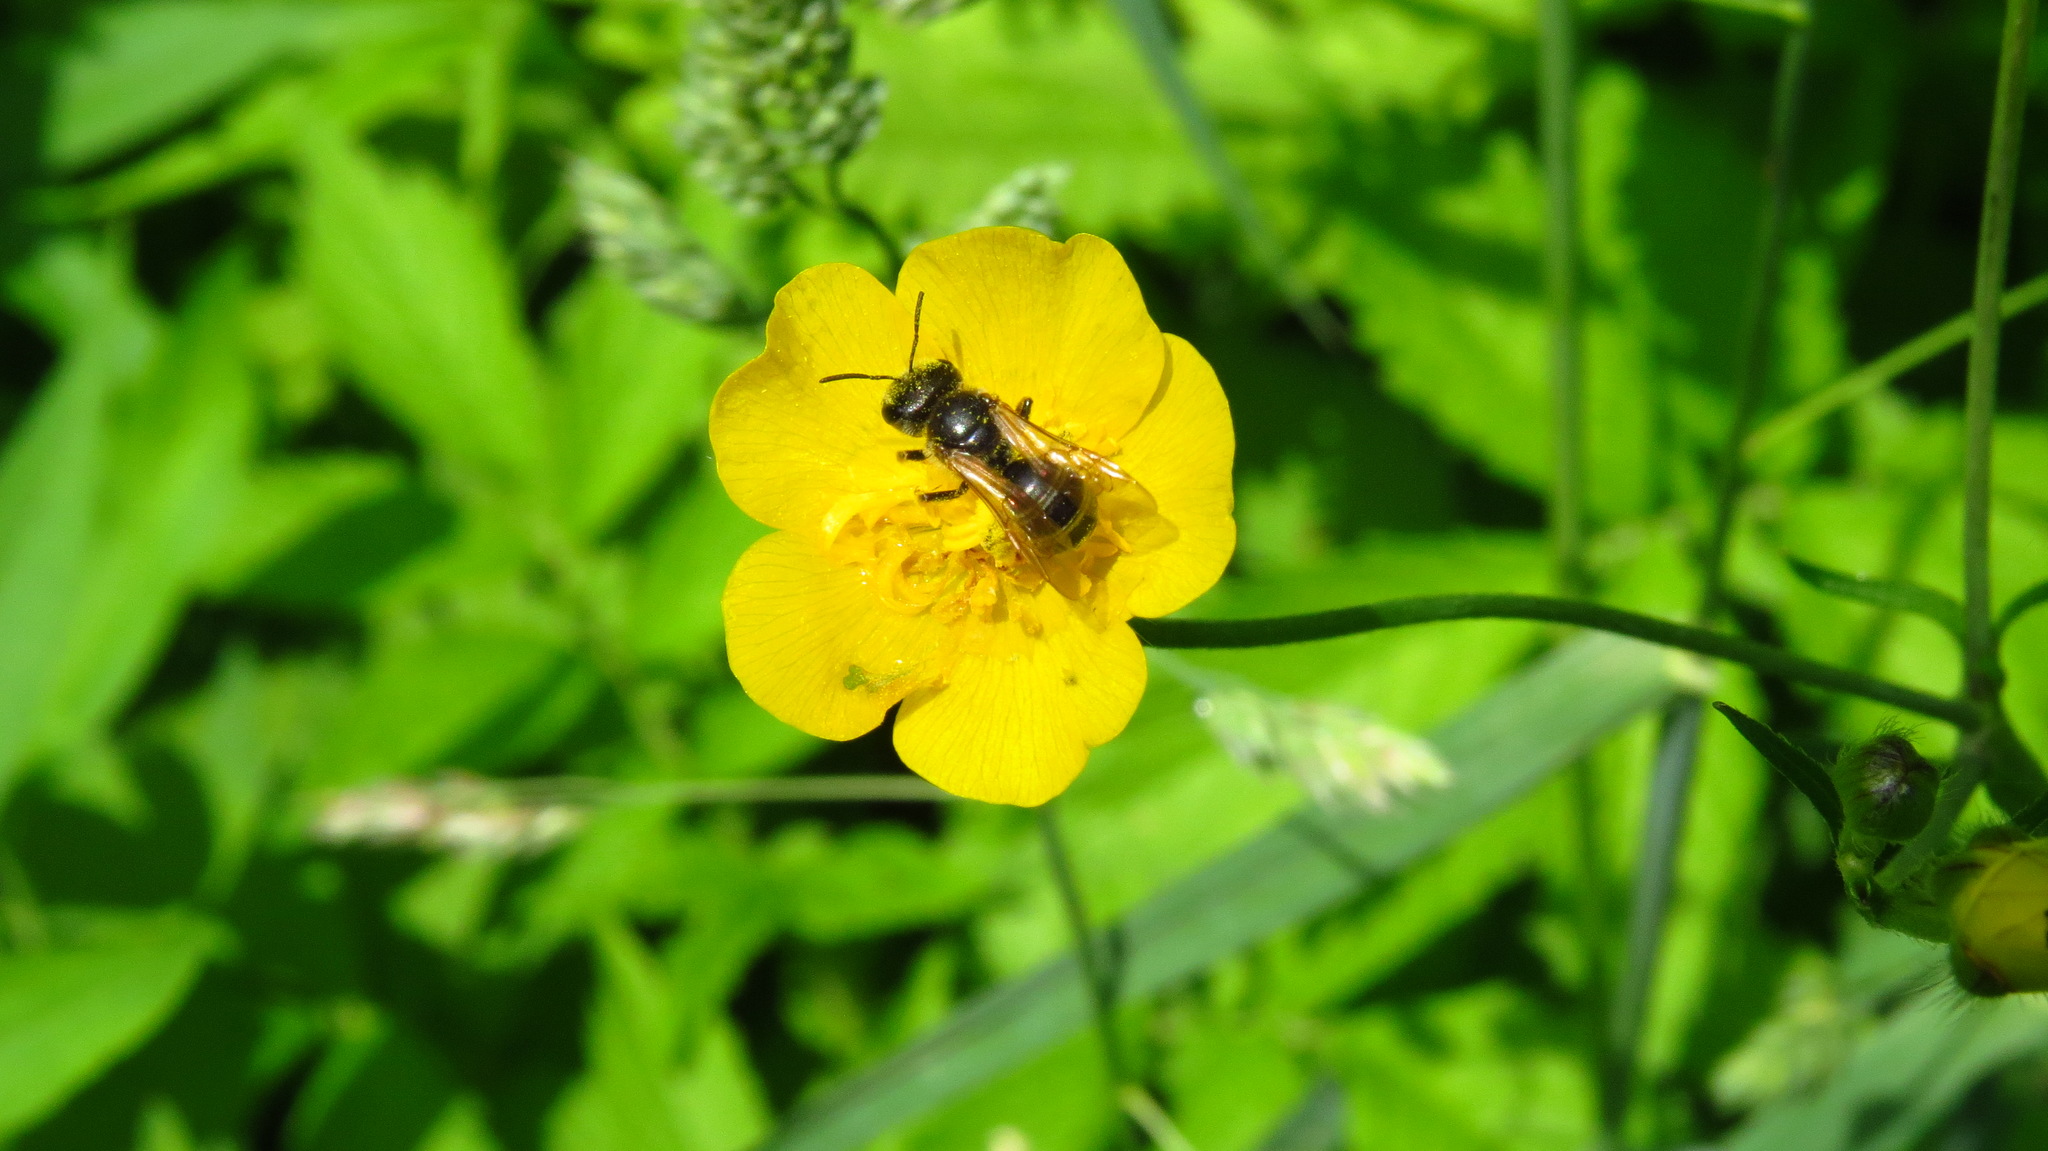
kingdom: Animalia
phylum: Arthropoda
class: Insecta
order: Hymenoptera
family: Halictidae
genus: Halictus
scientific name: Halictus ligatus
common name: Ligated furrow bee
